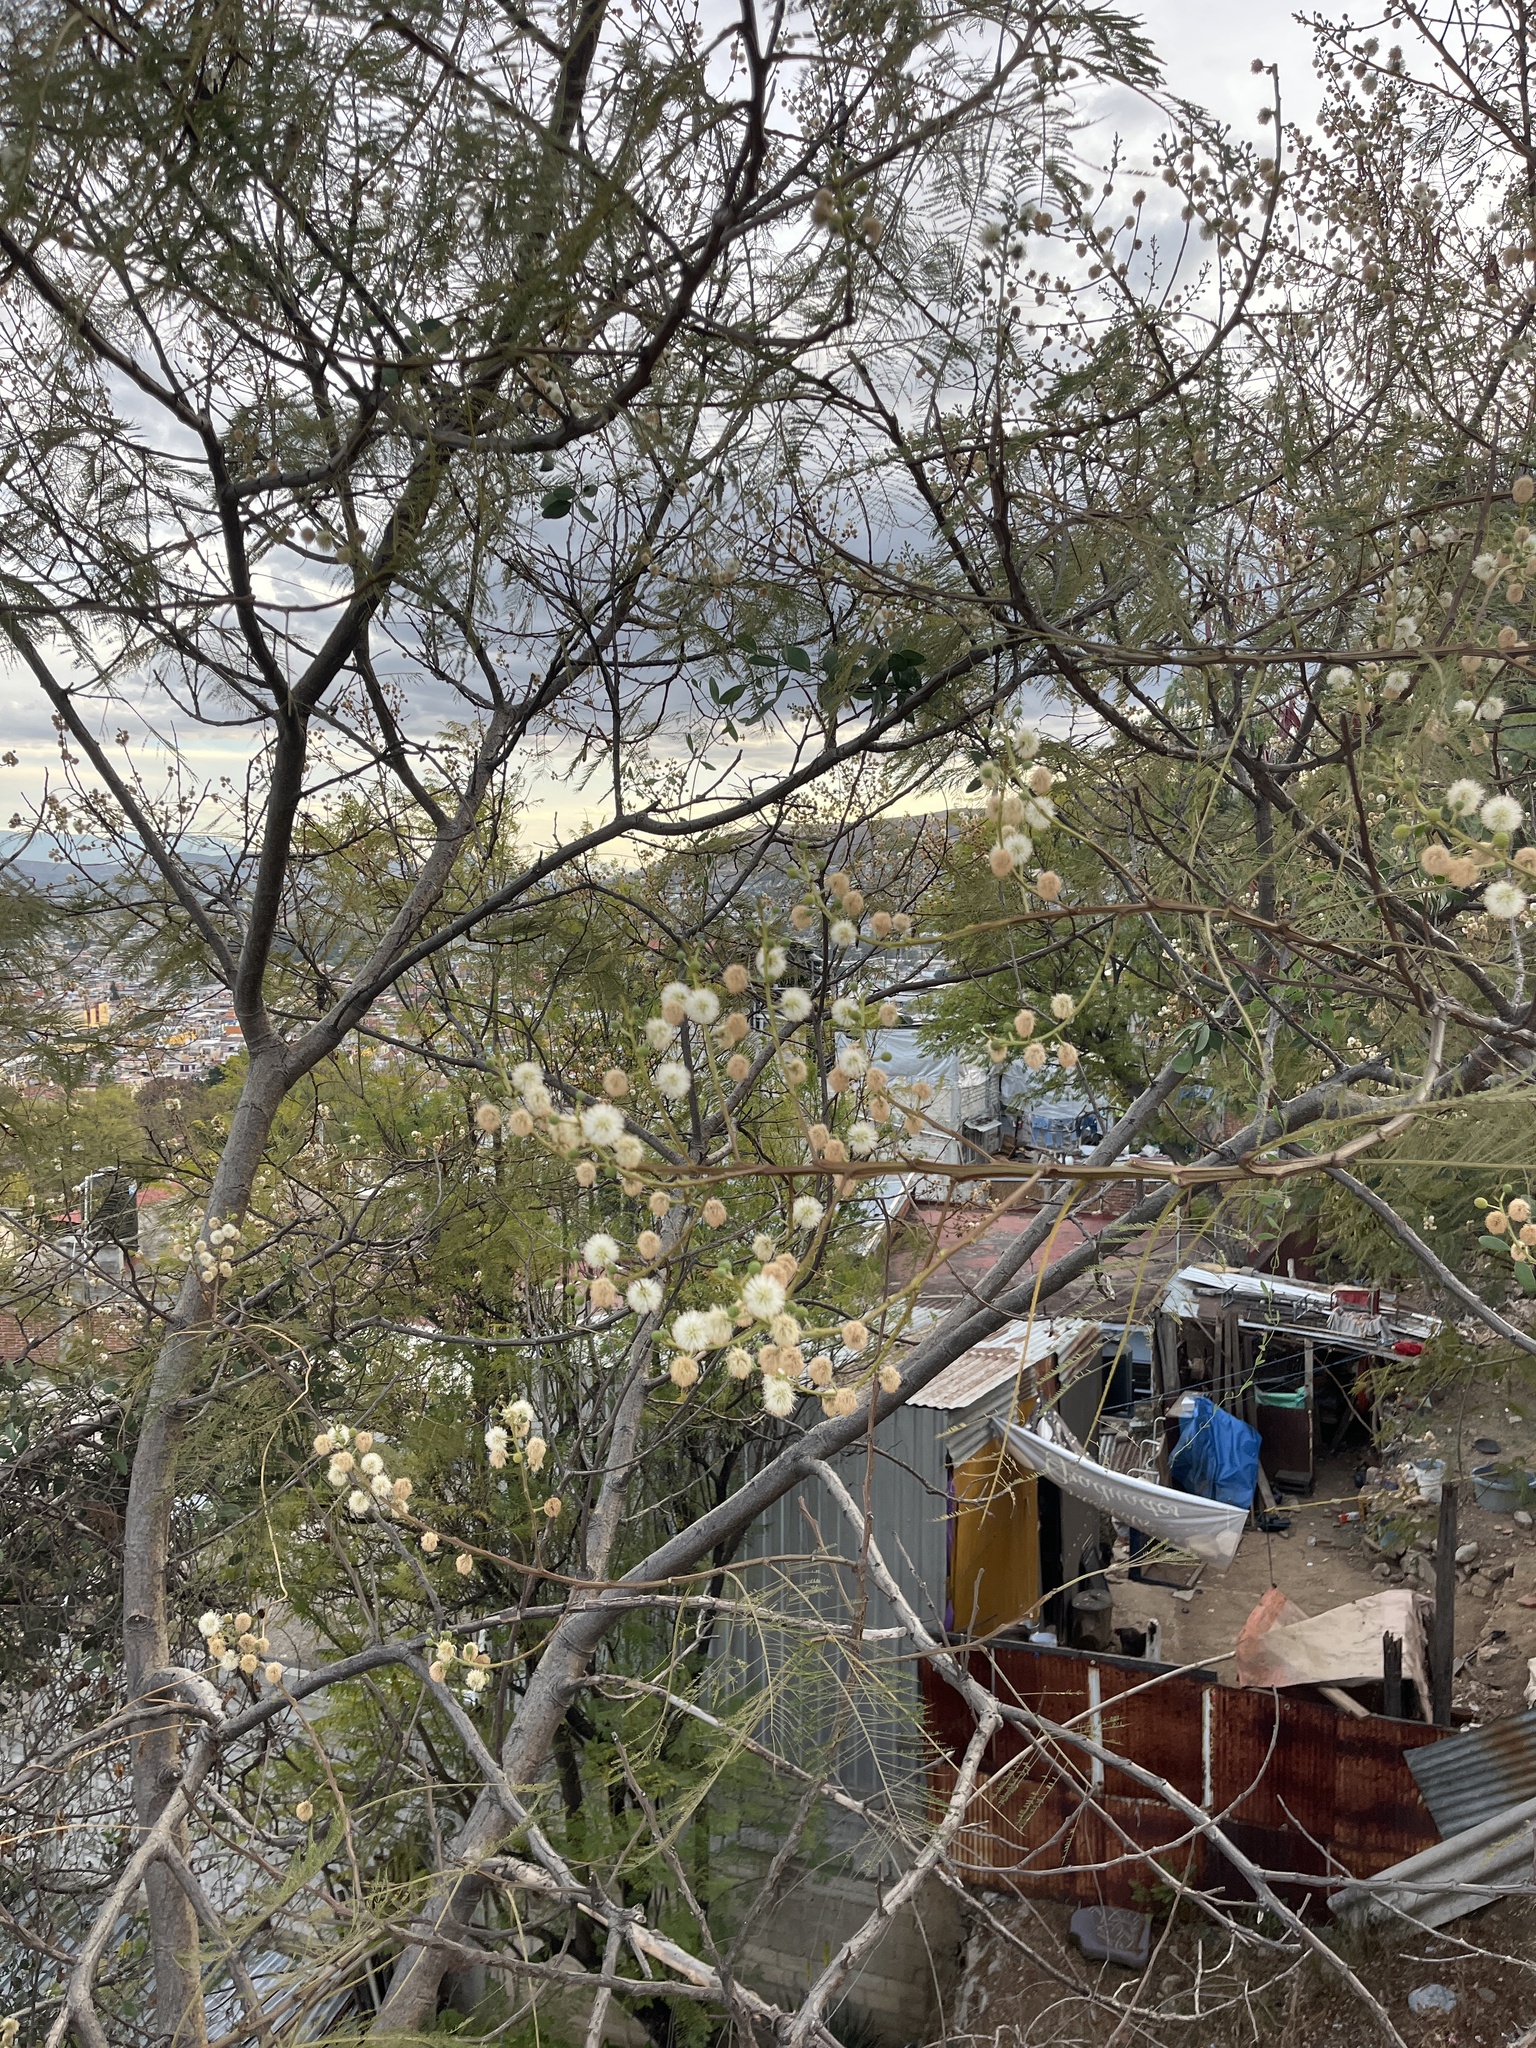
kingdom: Plantae
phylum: Tracheophyta
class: Magnoliopsida
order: Fabales
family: Fabaceae
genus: Leucaena
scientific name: Leucaena leucocephala
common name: White leadtree
